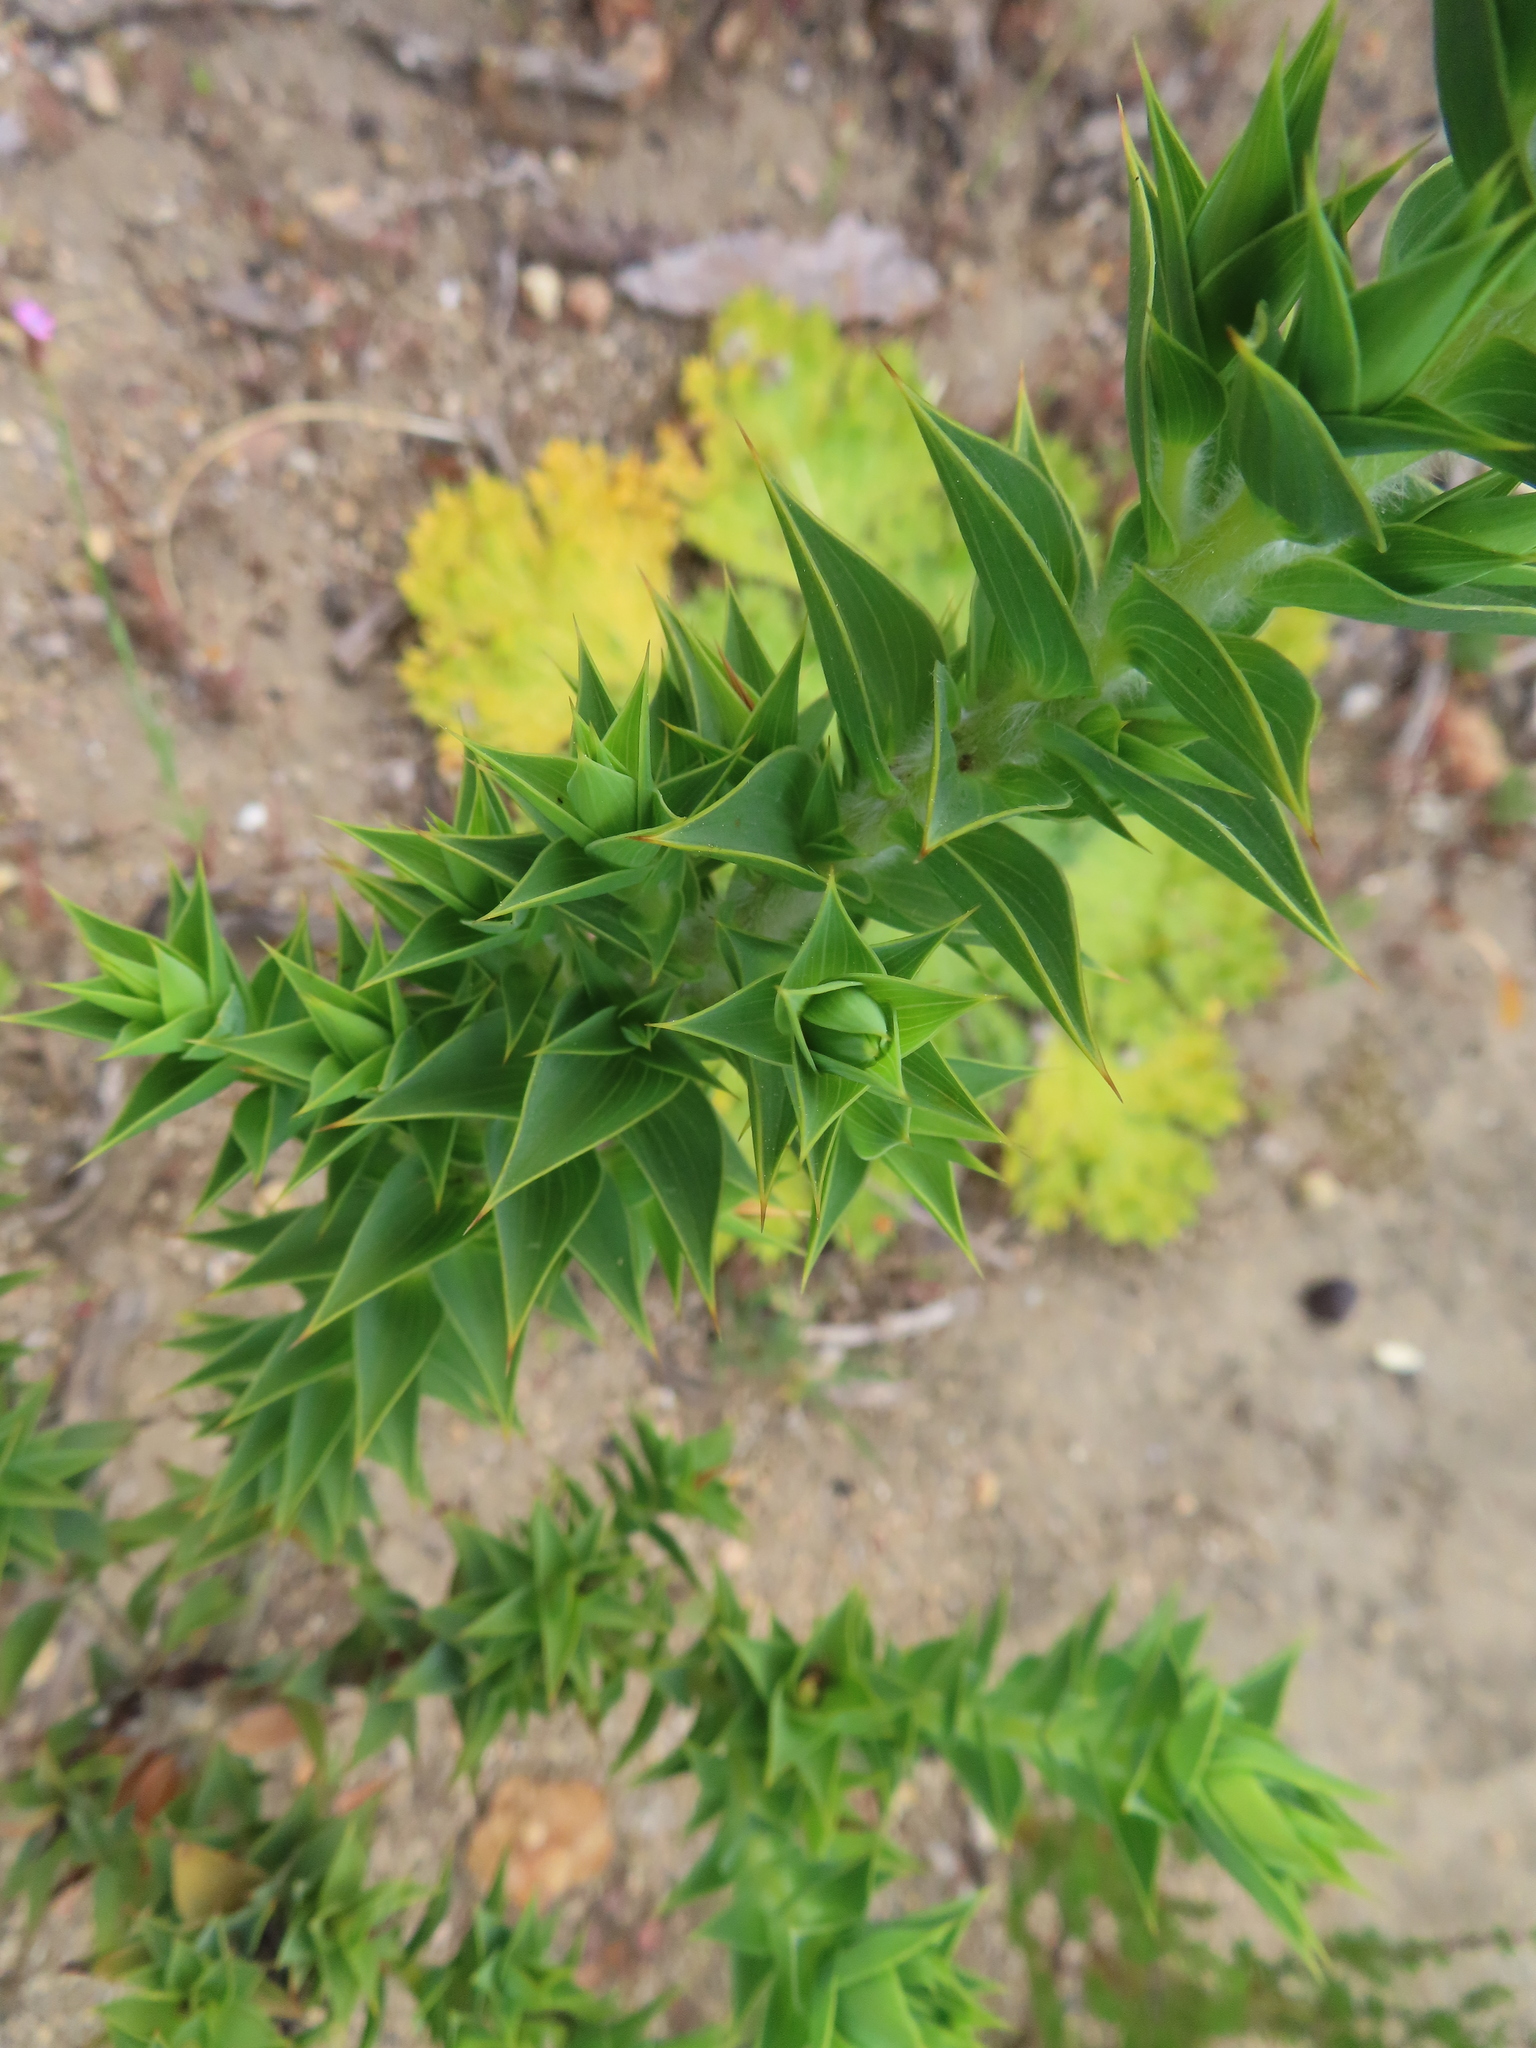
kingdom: Plantae
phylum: Tracheophyta
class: Magnoliopsida
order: Fabales
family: Fabaceae
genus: Aspalathus
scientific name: Aspalathus cordata
